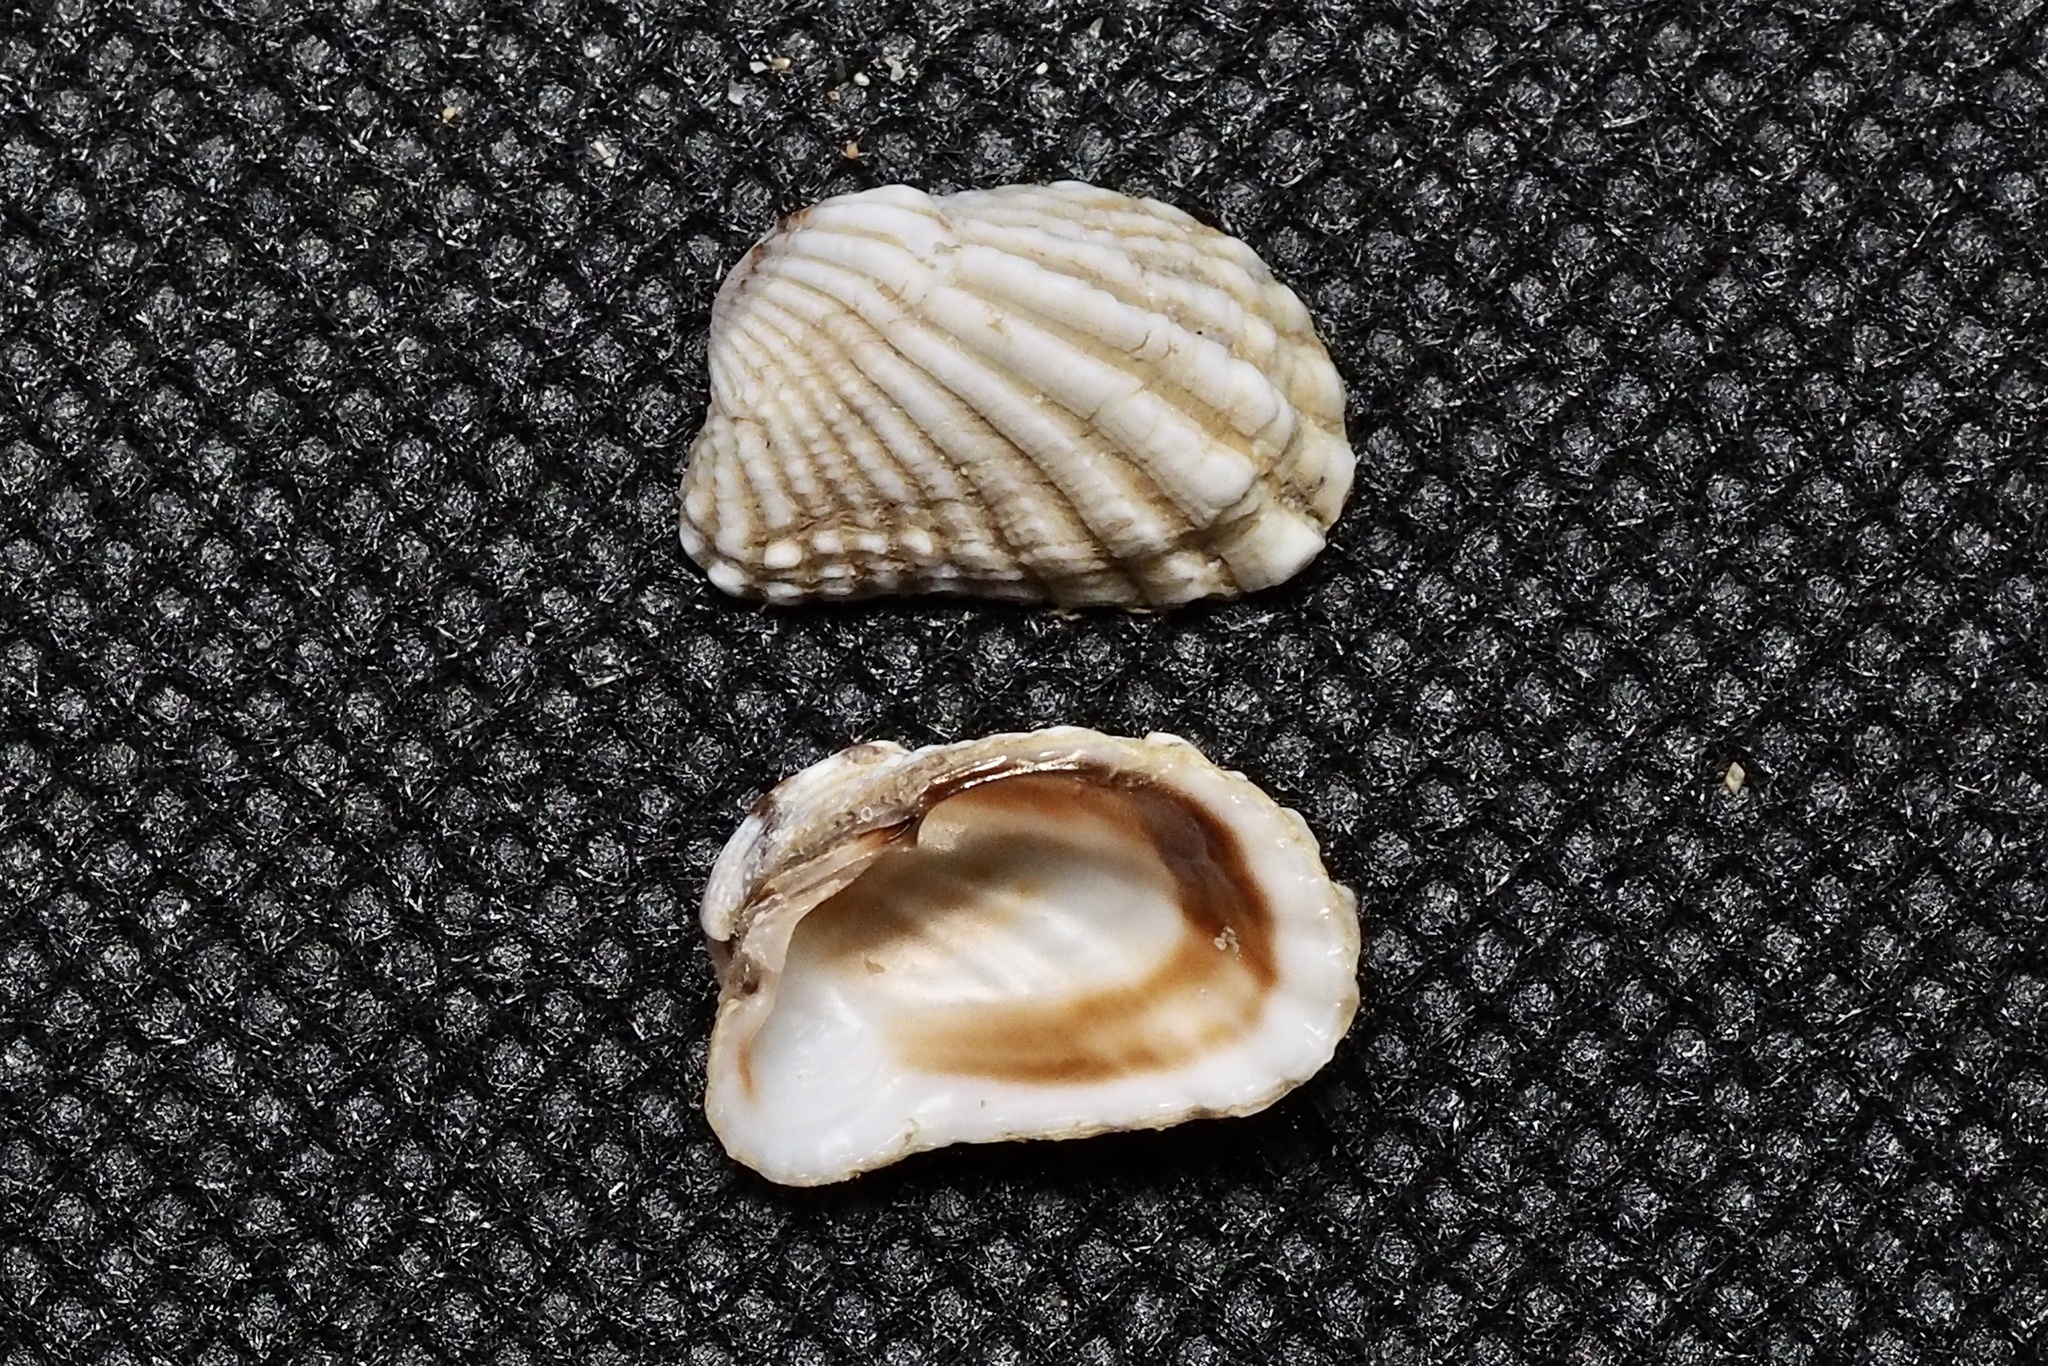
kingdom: Animalia
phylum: Mollusca
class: Bivalvia
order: Carditida
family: Carditidae
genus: Cardita
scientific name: Cardita leana
